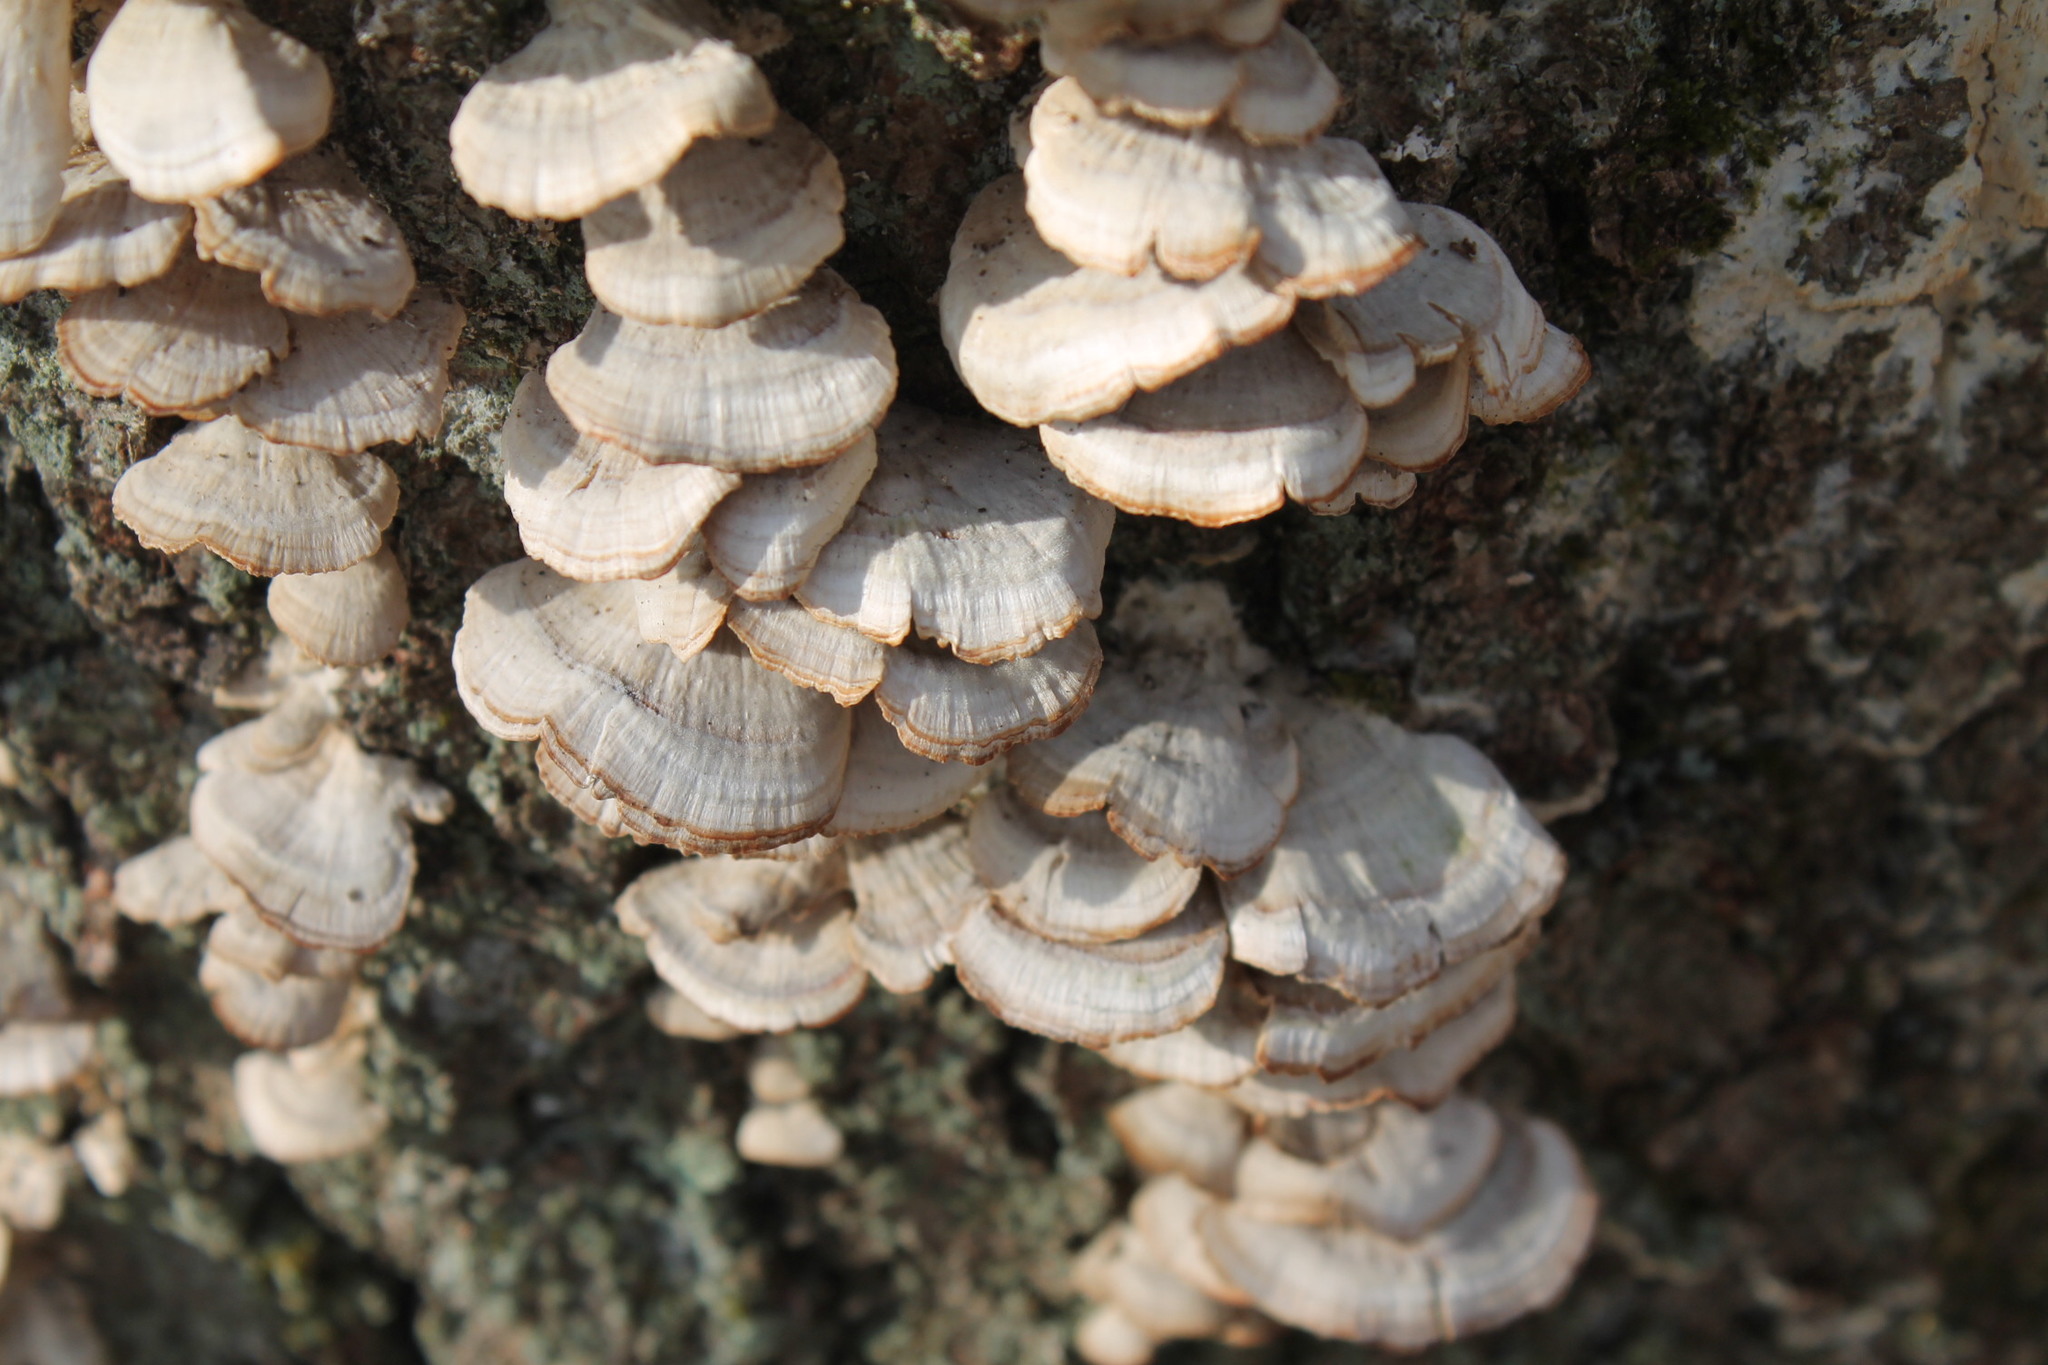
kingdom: Fungi
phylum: Basidiomycota
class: Agaricomycetes
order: Hymenochaetales
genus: Trichaptum
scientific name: Trichaptum biforme
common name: Violet-toothed polypore
